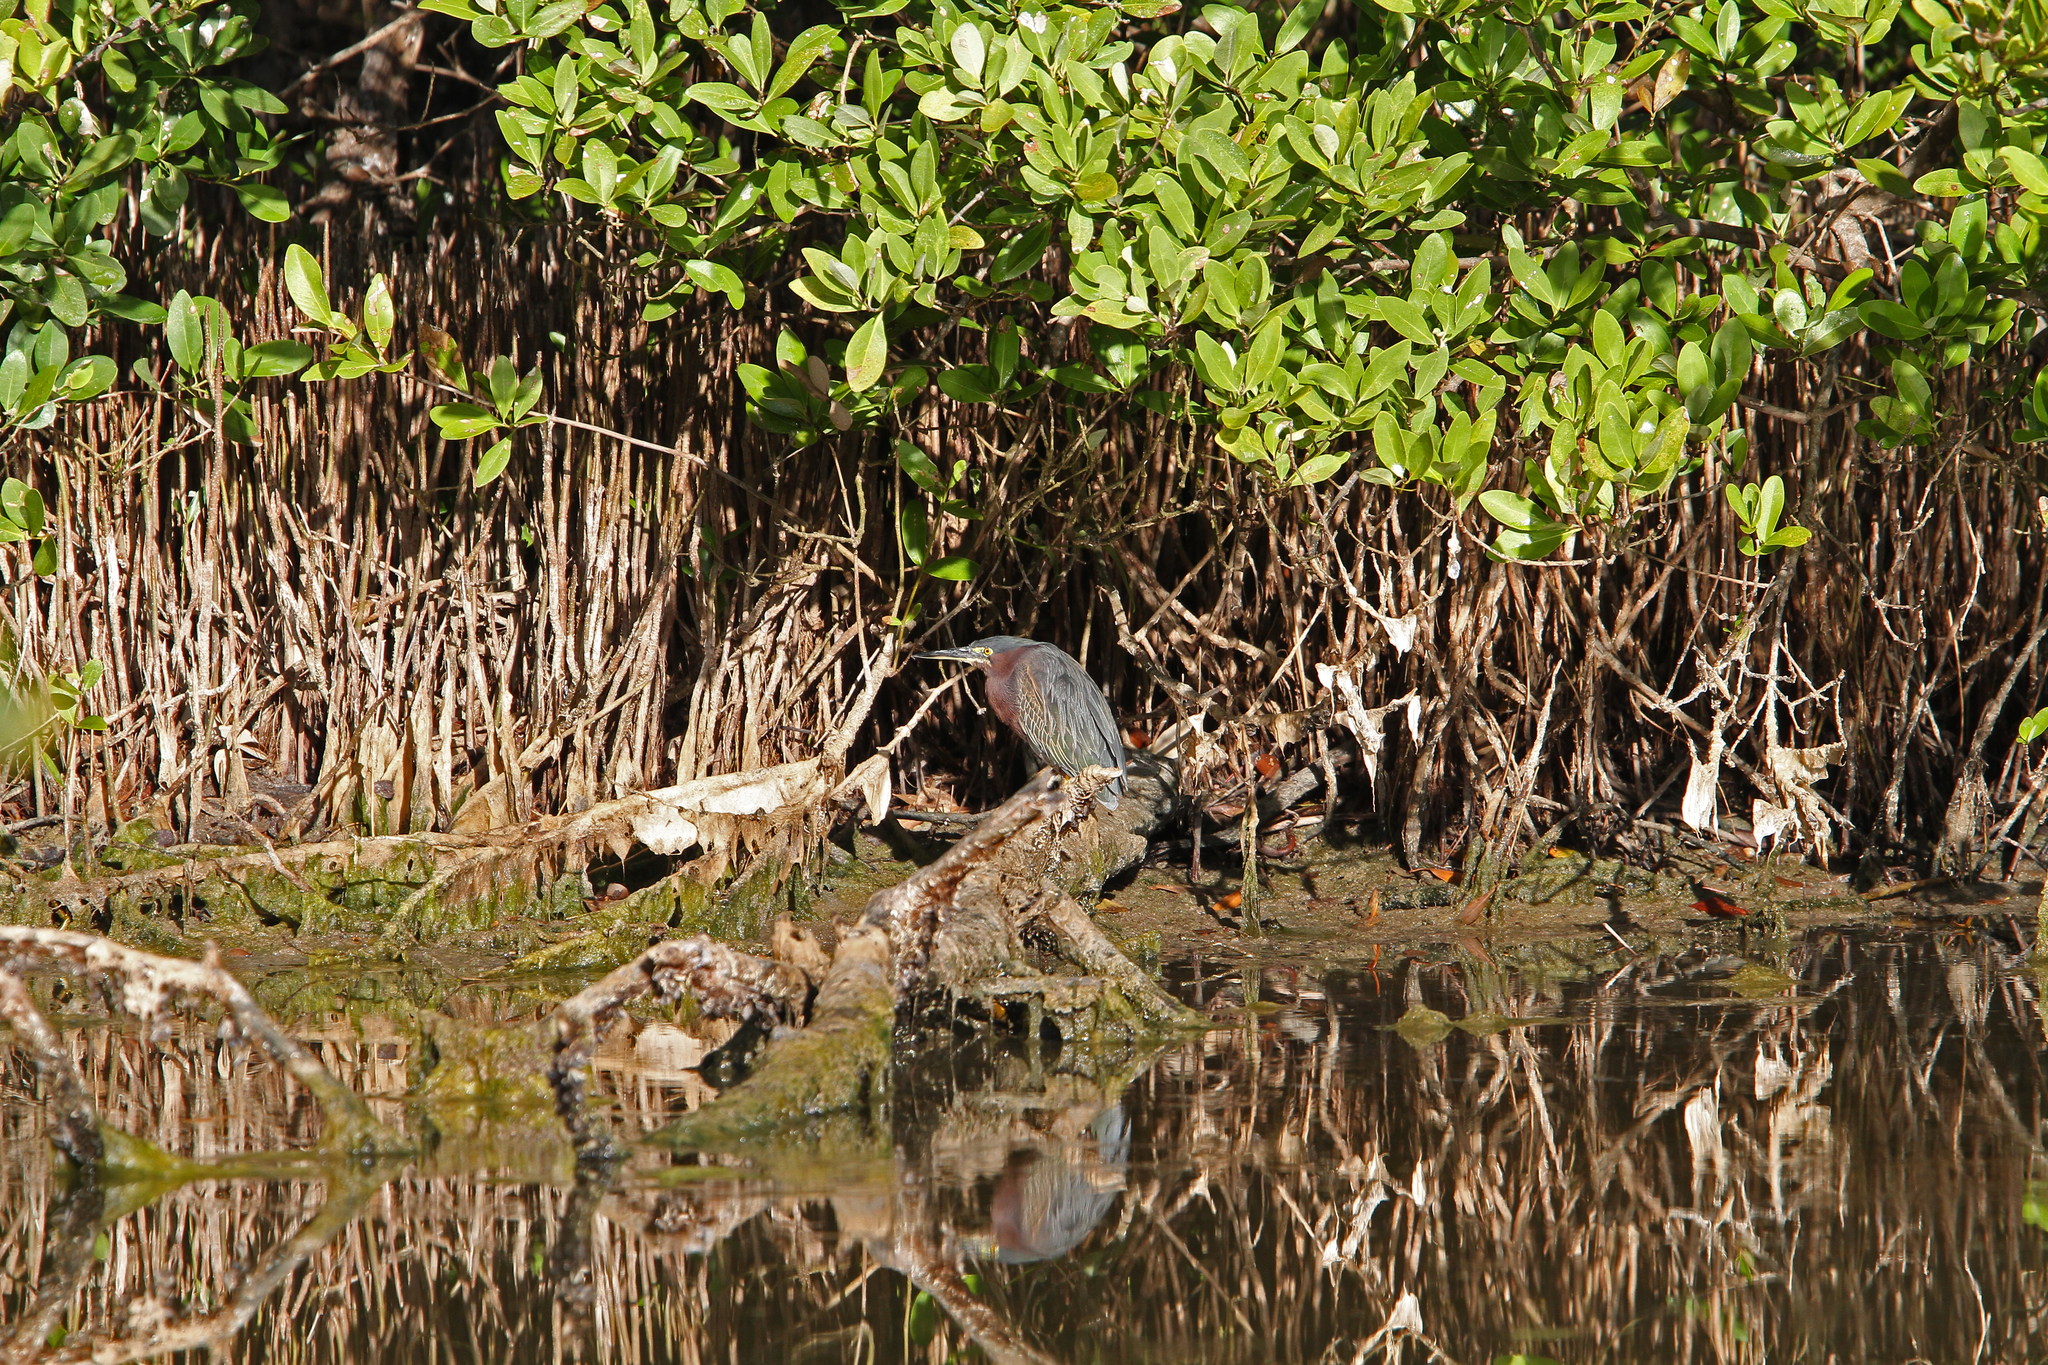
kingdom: Animalia
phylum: Chordata
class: Aves
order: Pelecaniformes
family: Ardeidae
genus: Butorides
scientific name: Butorides virescens
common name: Green heron
